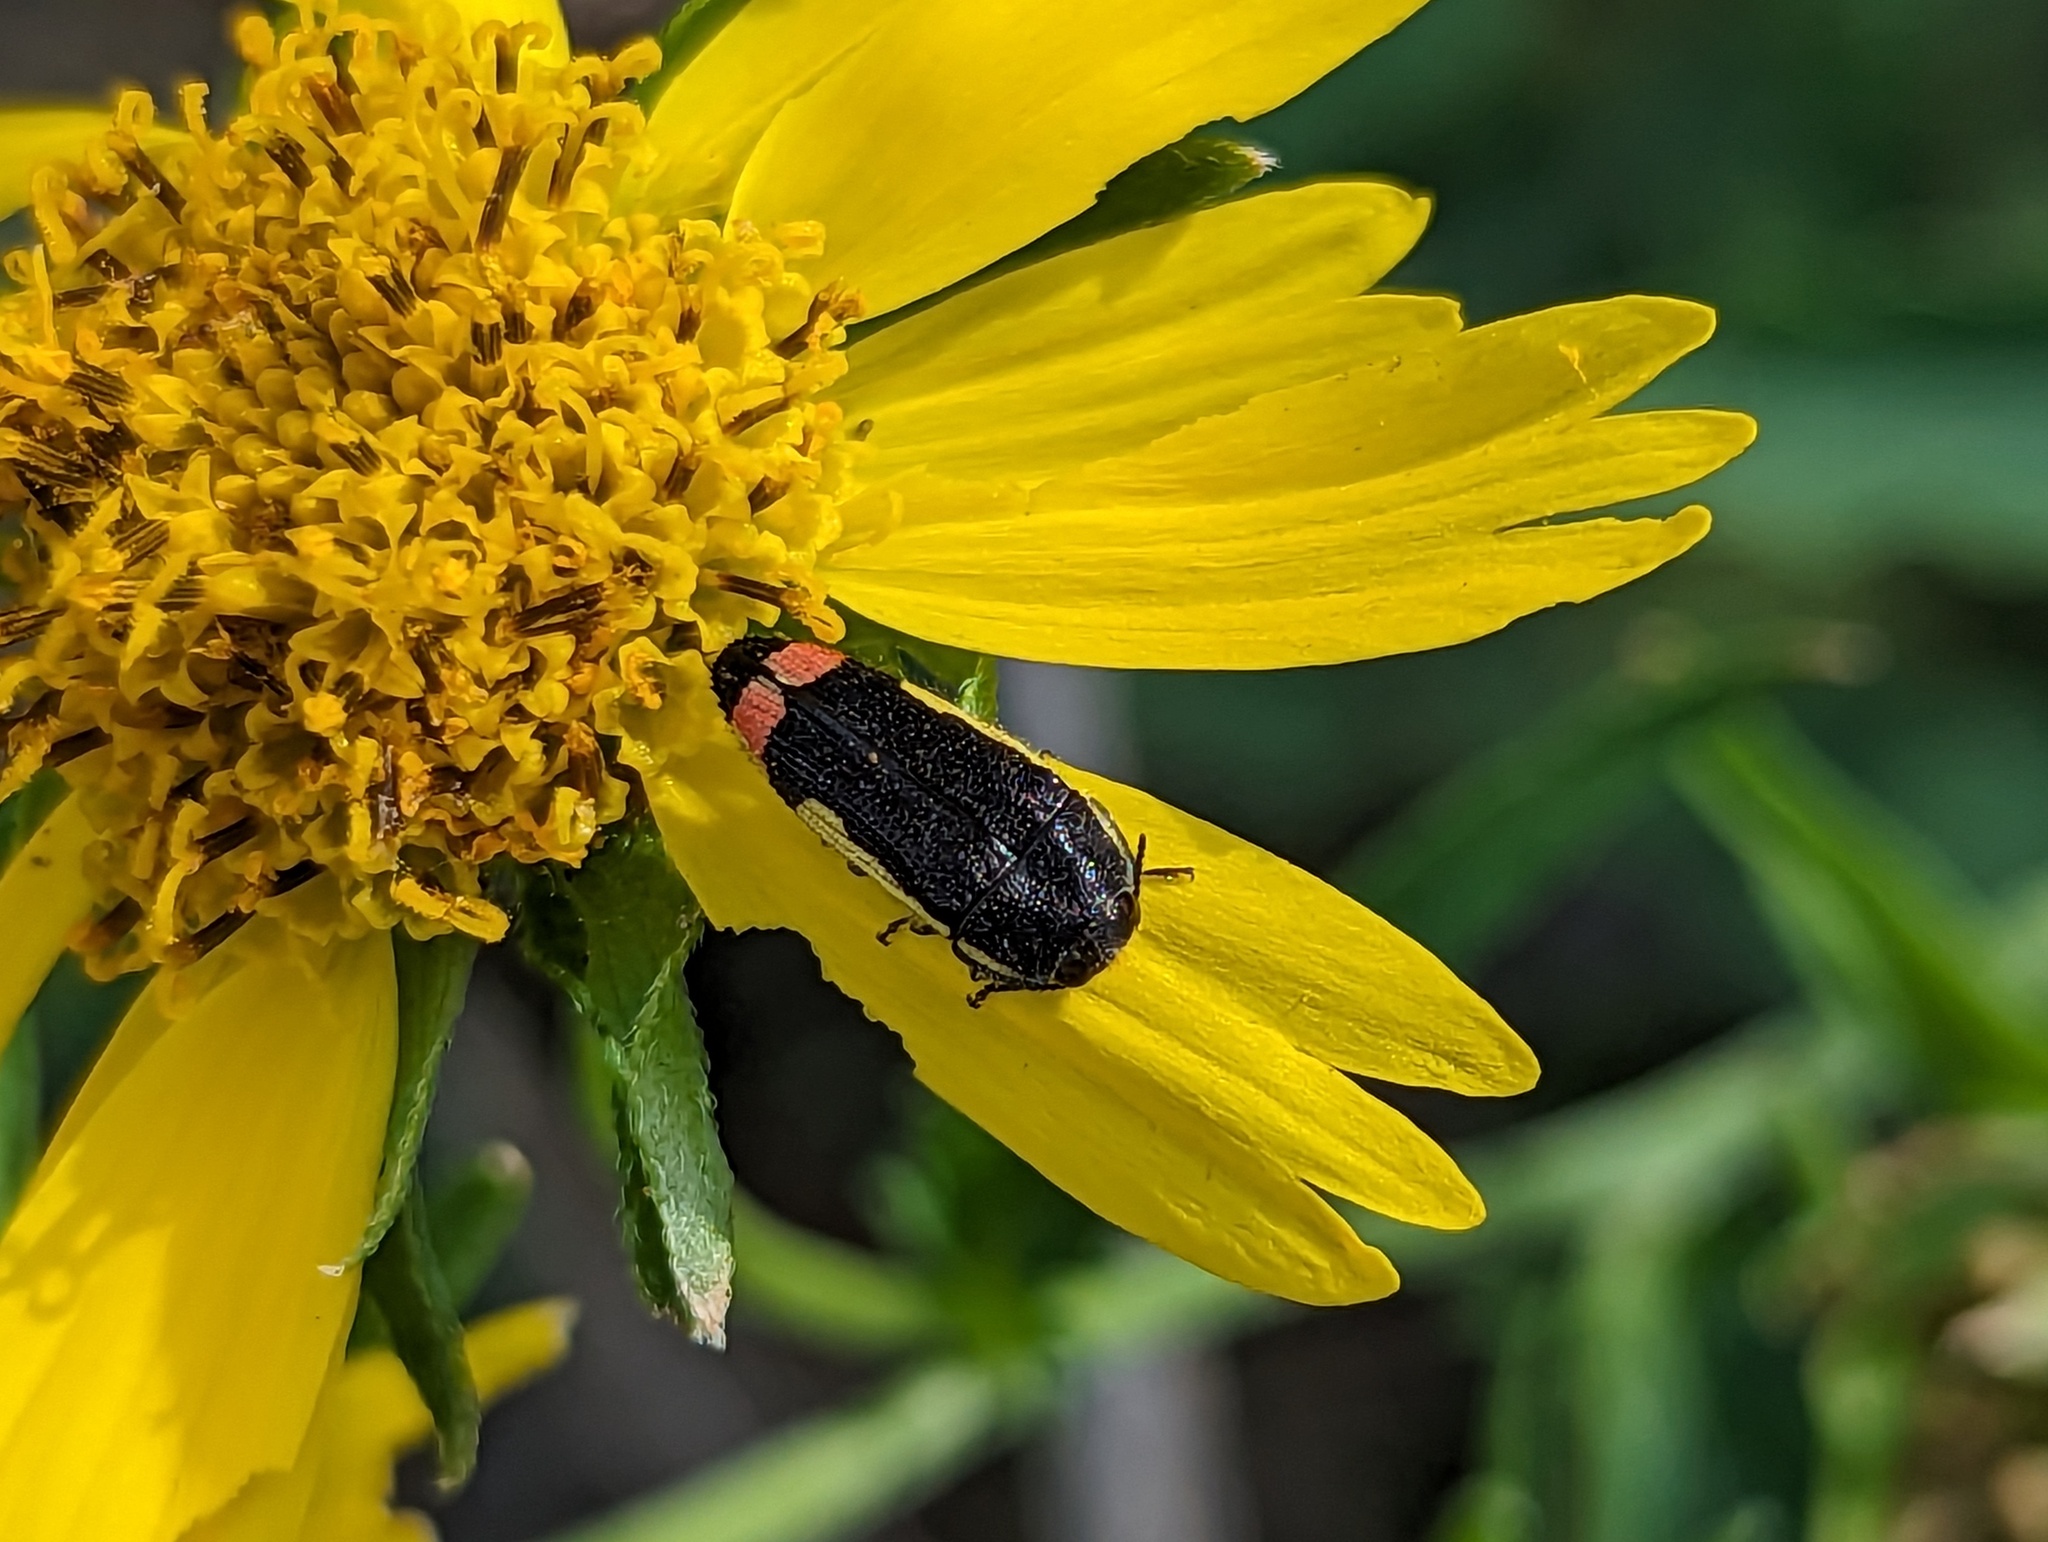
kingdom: Animalia
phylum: Arthropoda
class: Insecta
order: Coleoptera
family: Buprestidae
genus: Acmaeodera
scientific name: Acmaeodera flavomarginata
